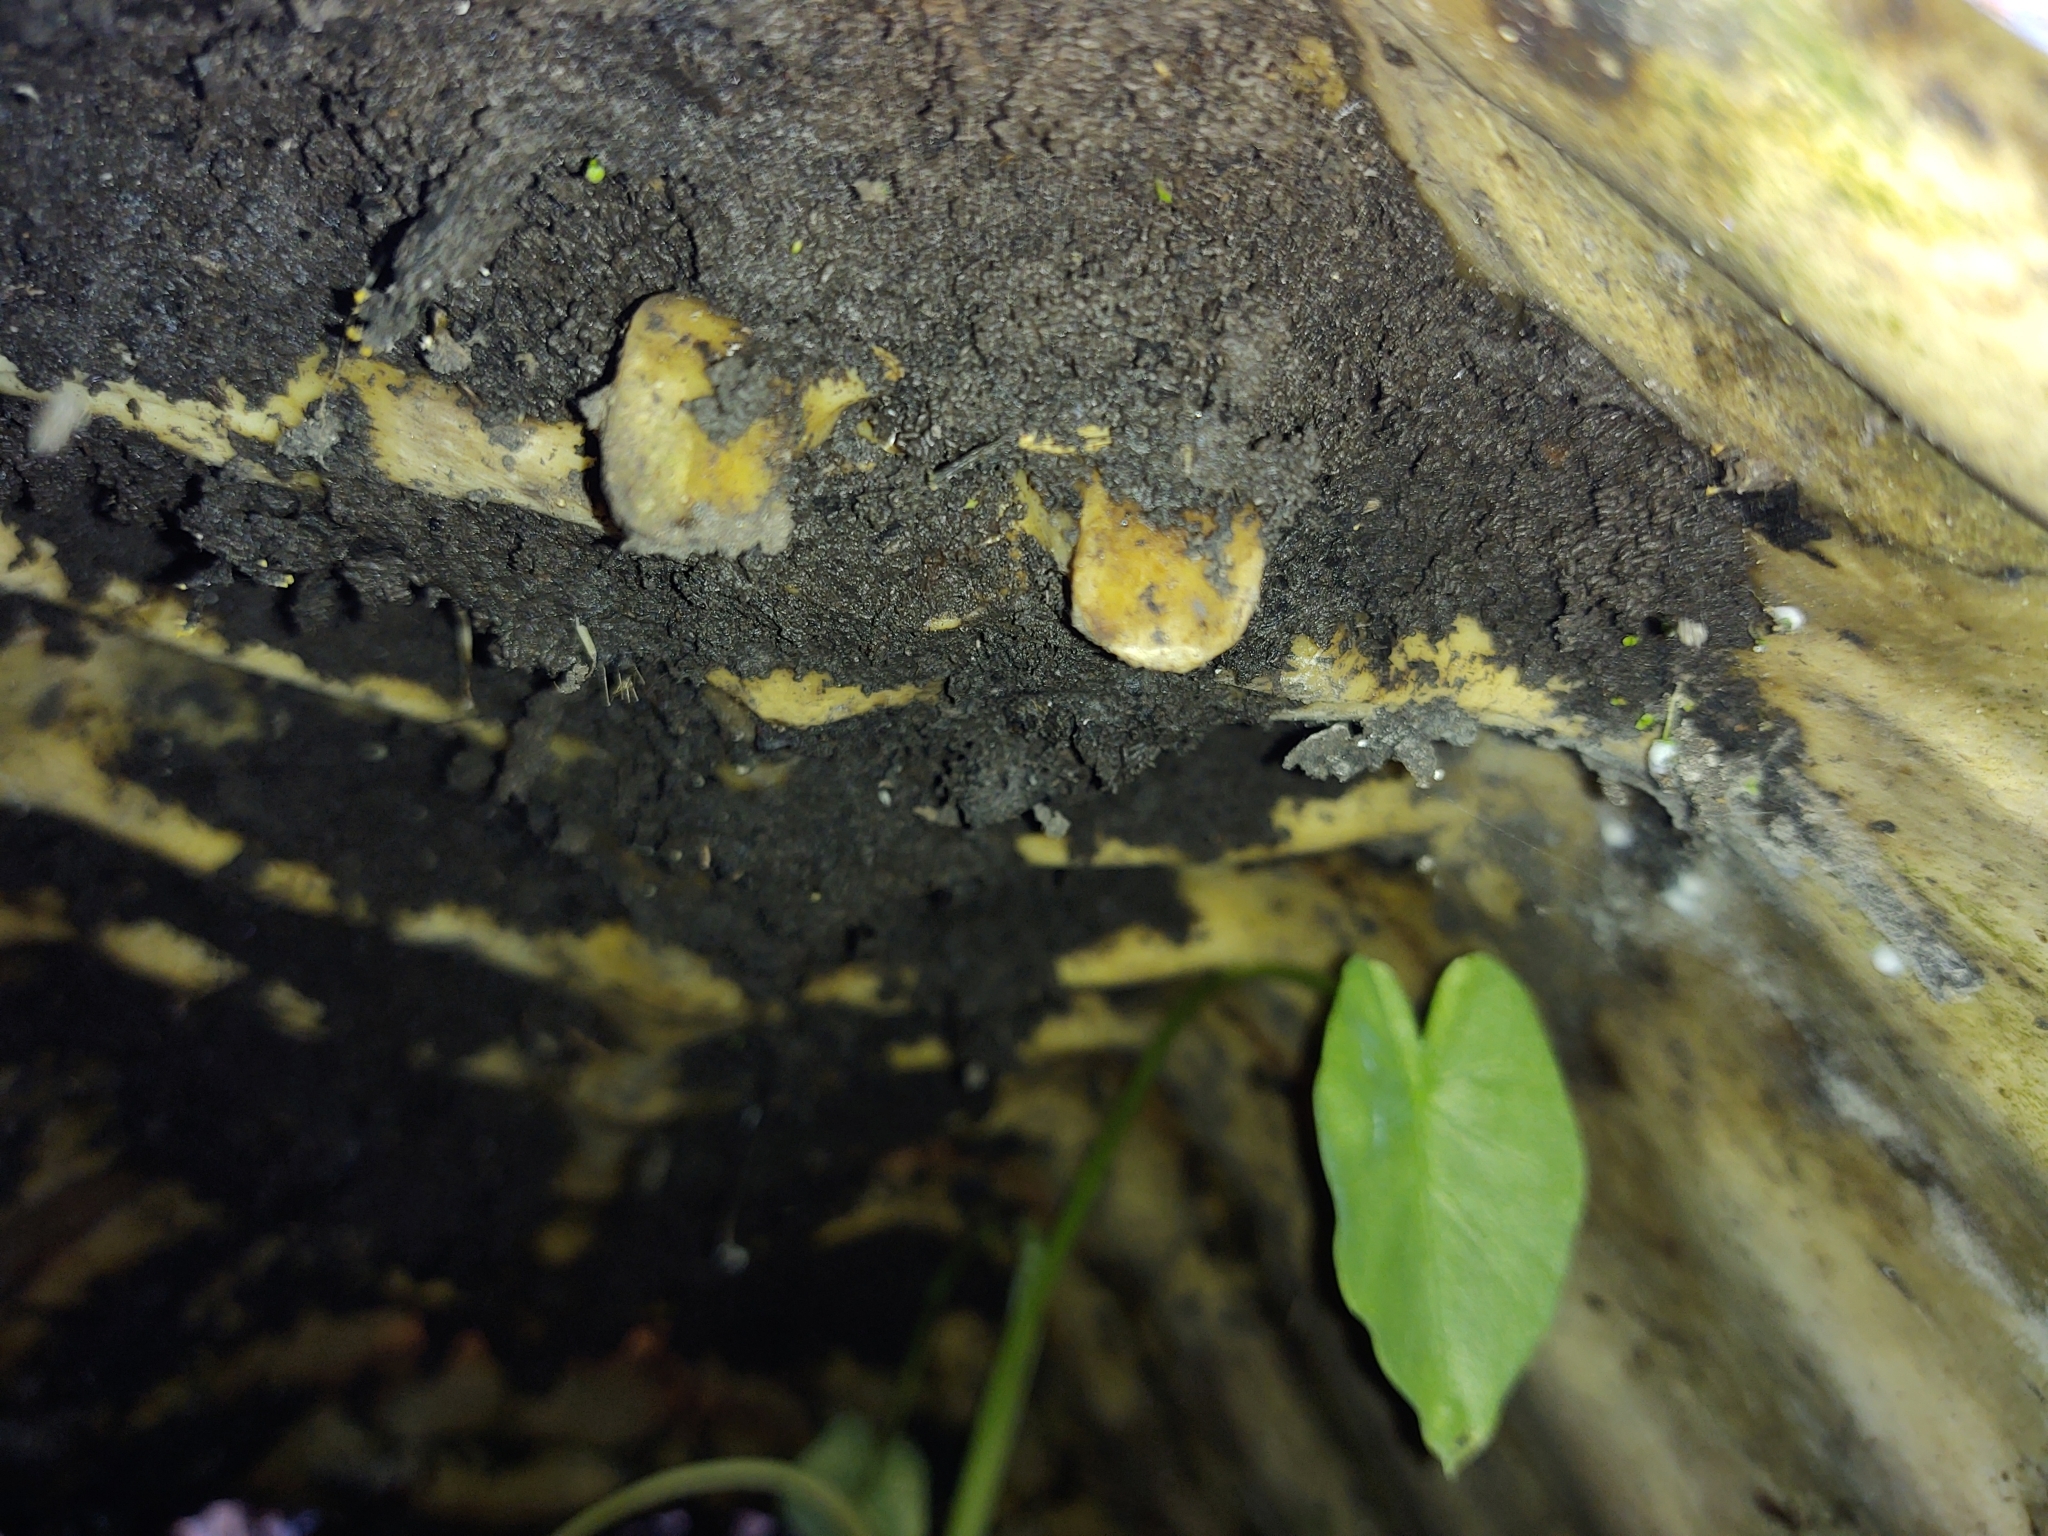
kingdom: Animalia
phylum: Chordata
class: Testudines
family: Chelydridae
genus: Chelydra
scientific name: Chelydra serpentina
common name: Common snapping turtle
